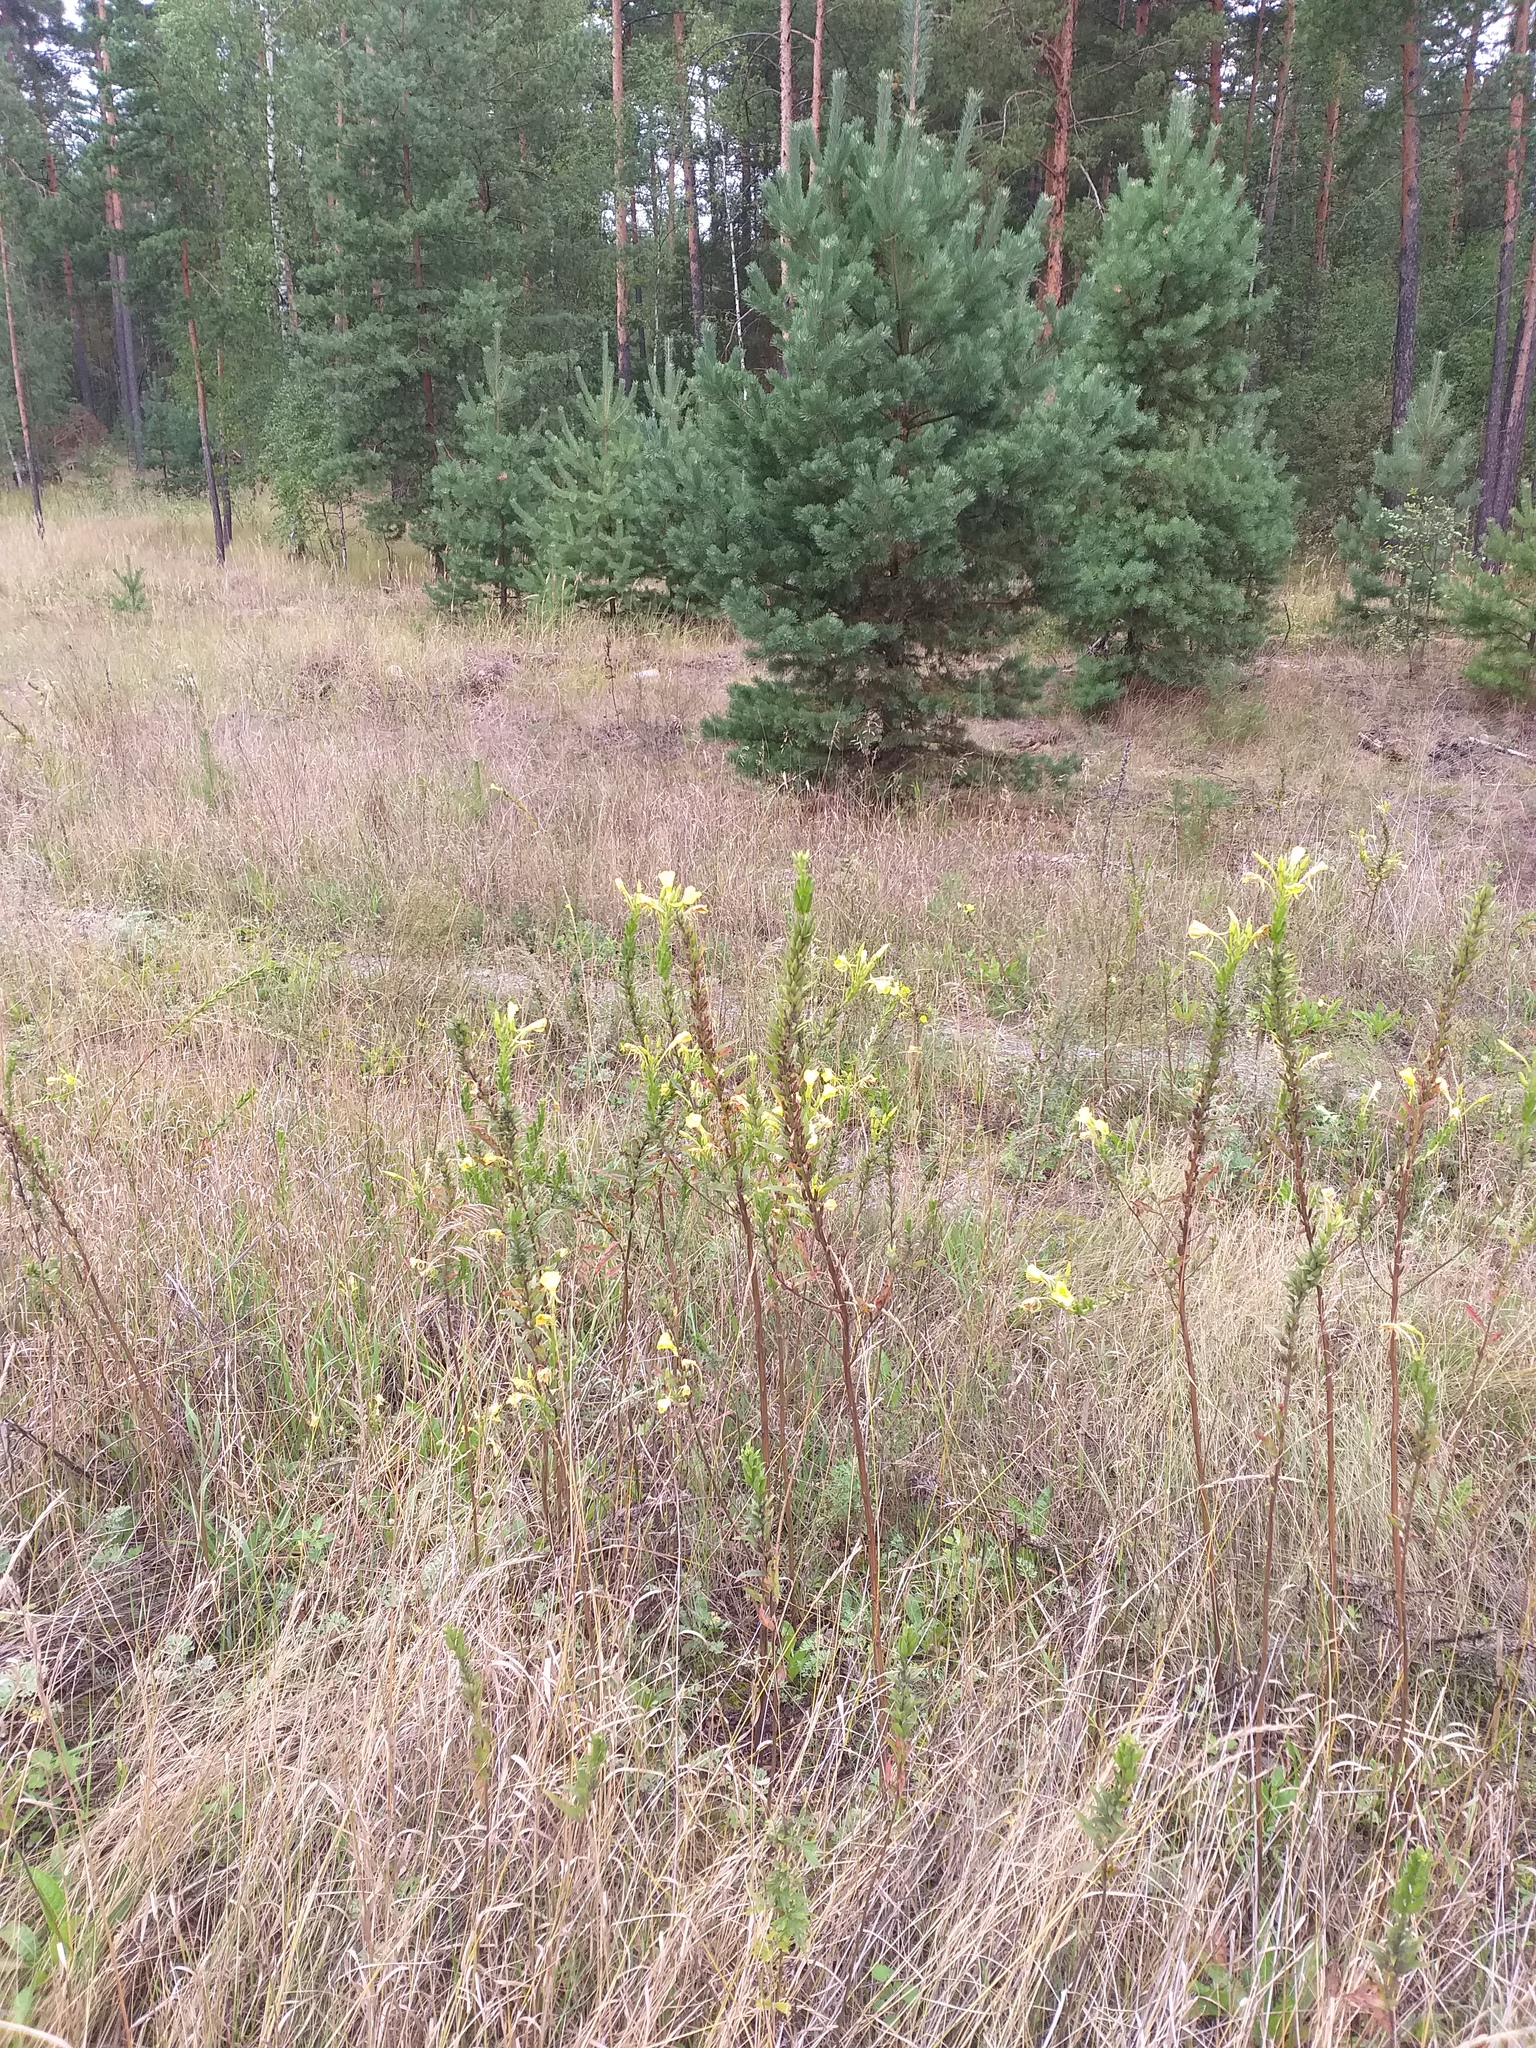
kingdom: Plantae
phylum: Tracheophyta
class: Magnoliopsida
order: Myrtales
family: Onagraceae
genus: Oenothera
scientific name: Oenothera biennis
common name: Common evening-primrose
